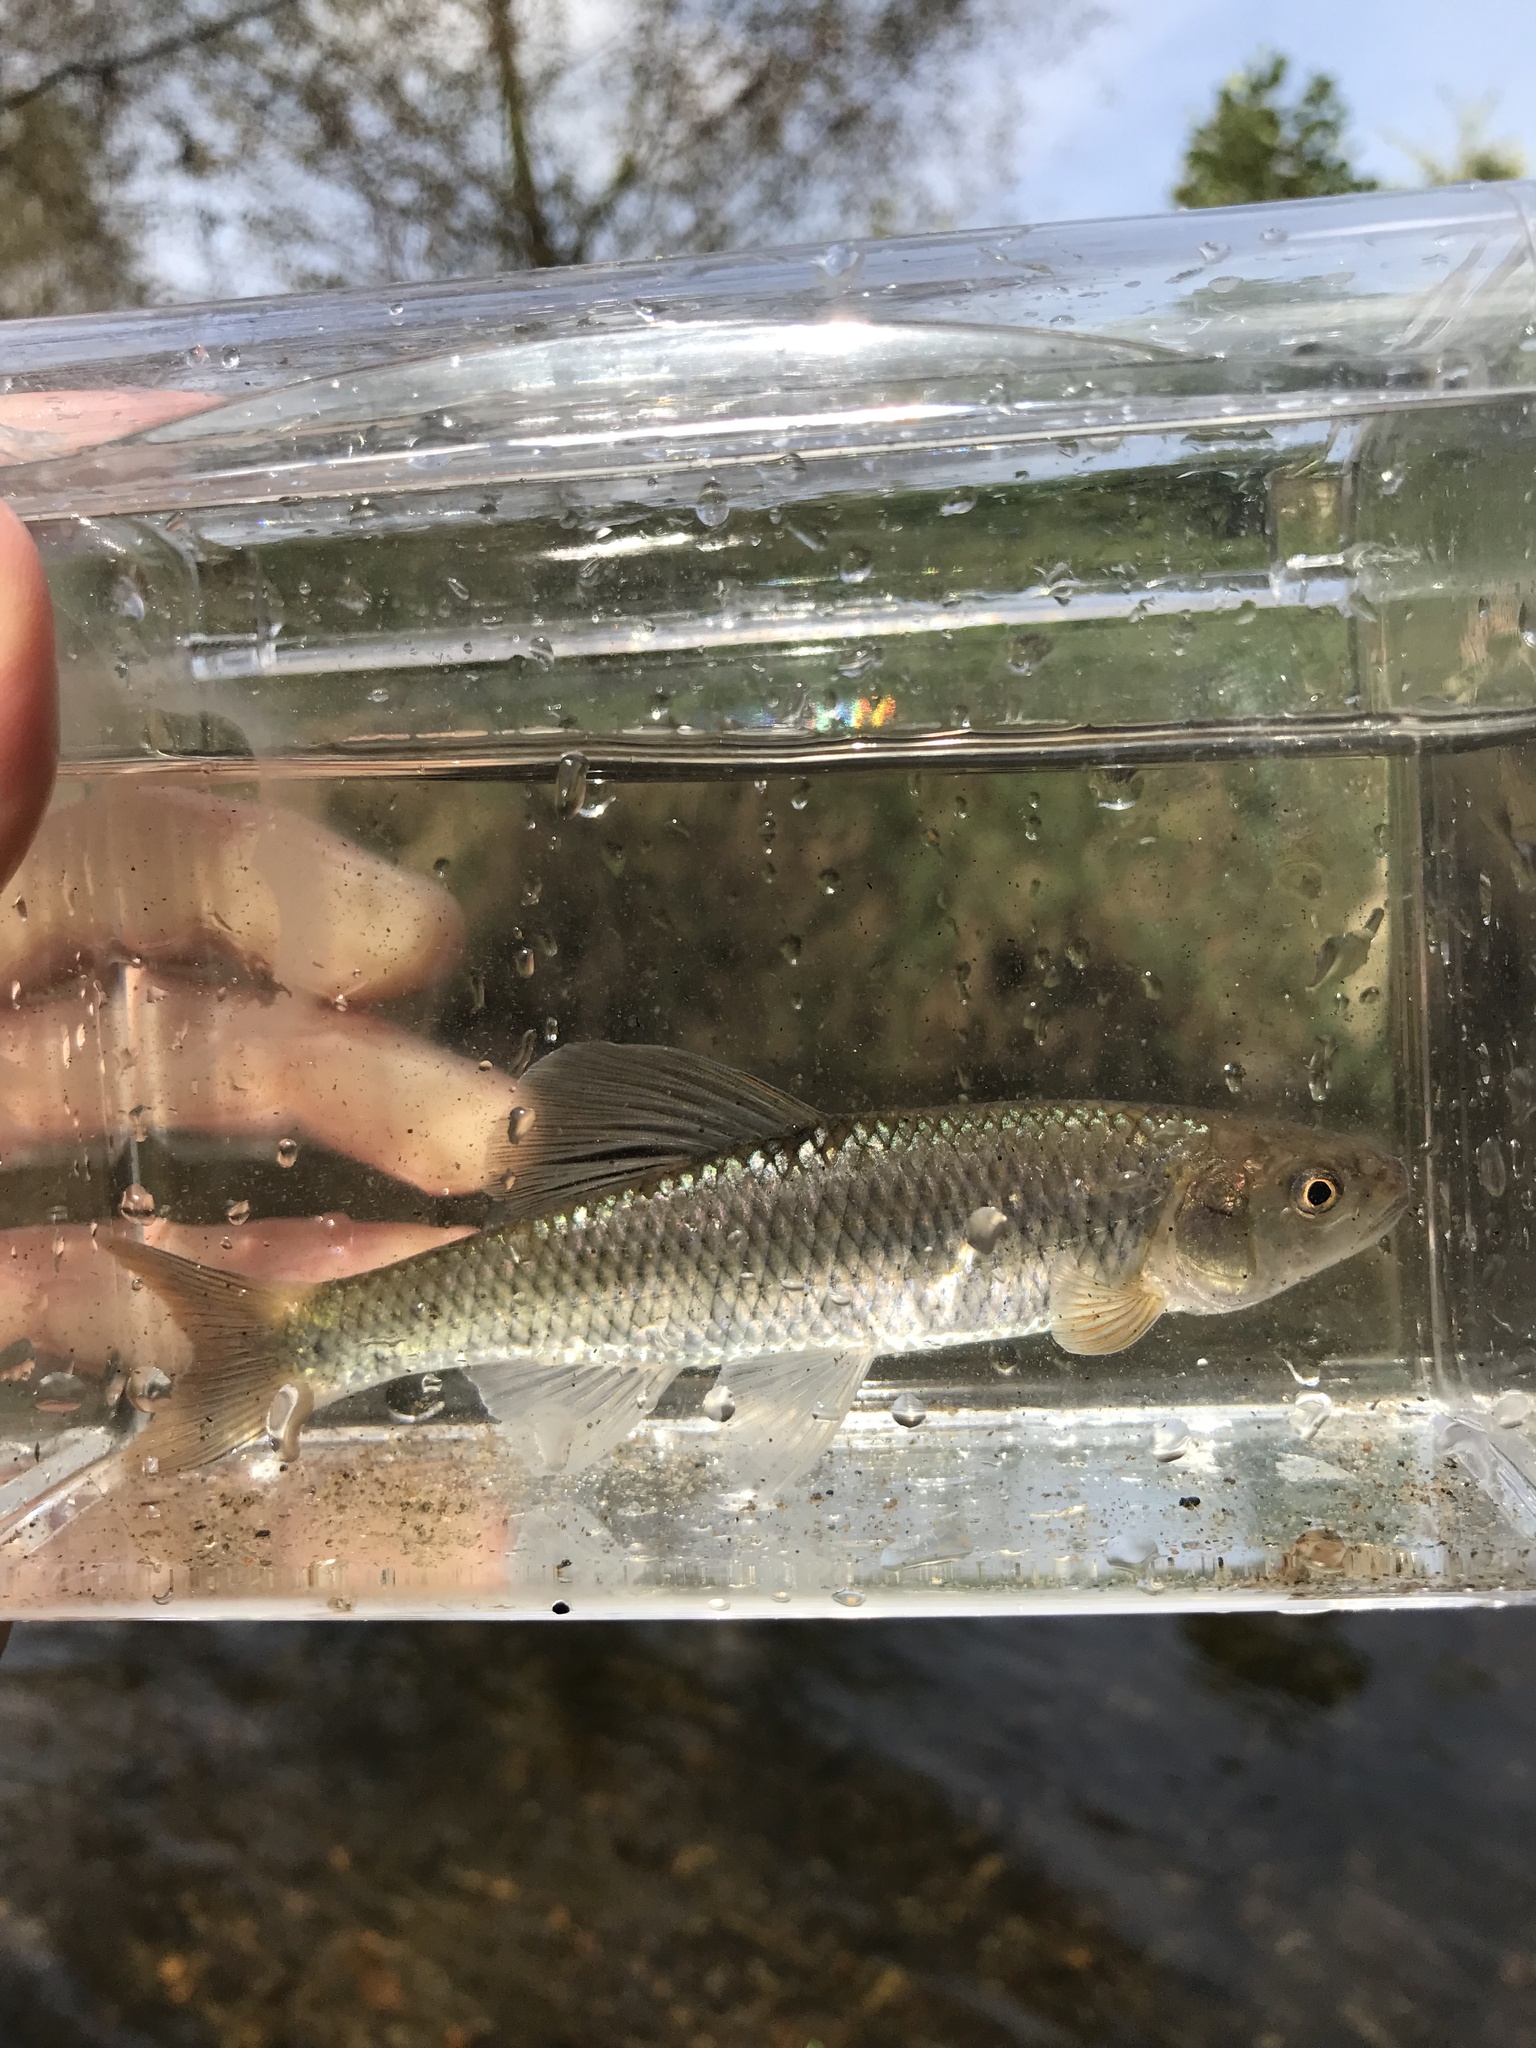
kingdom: Animalia
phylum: Chordata
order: Cypriniformes
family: Cyprinidae
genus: Cyprinella
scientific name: Cyprinella galactura
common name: Whitetail shiner
